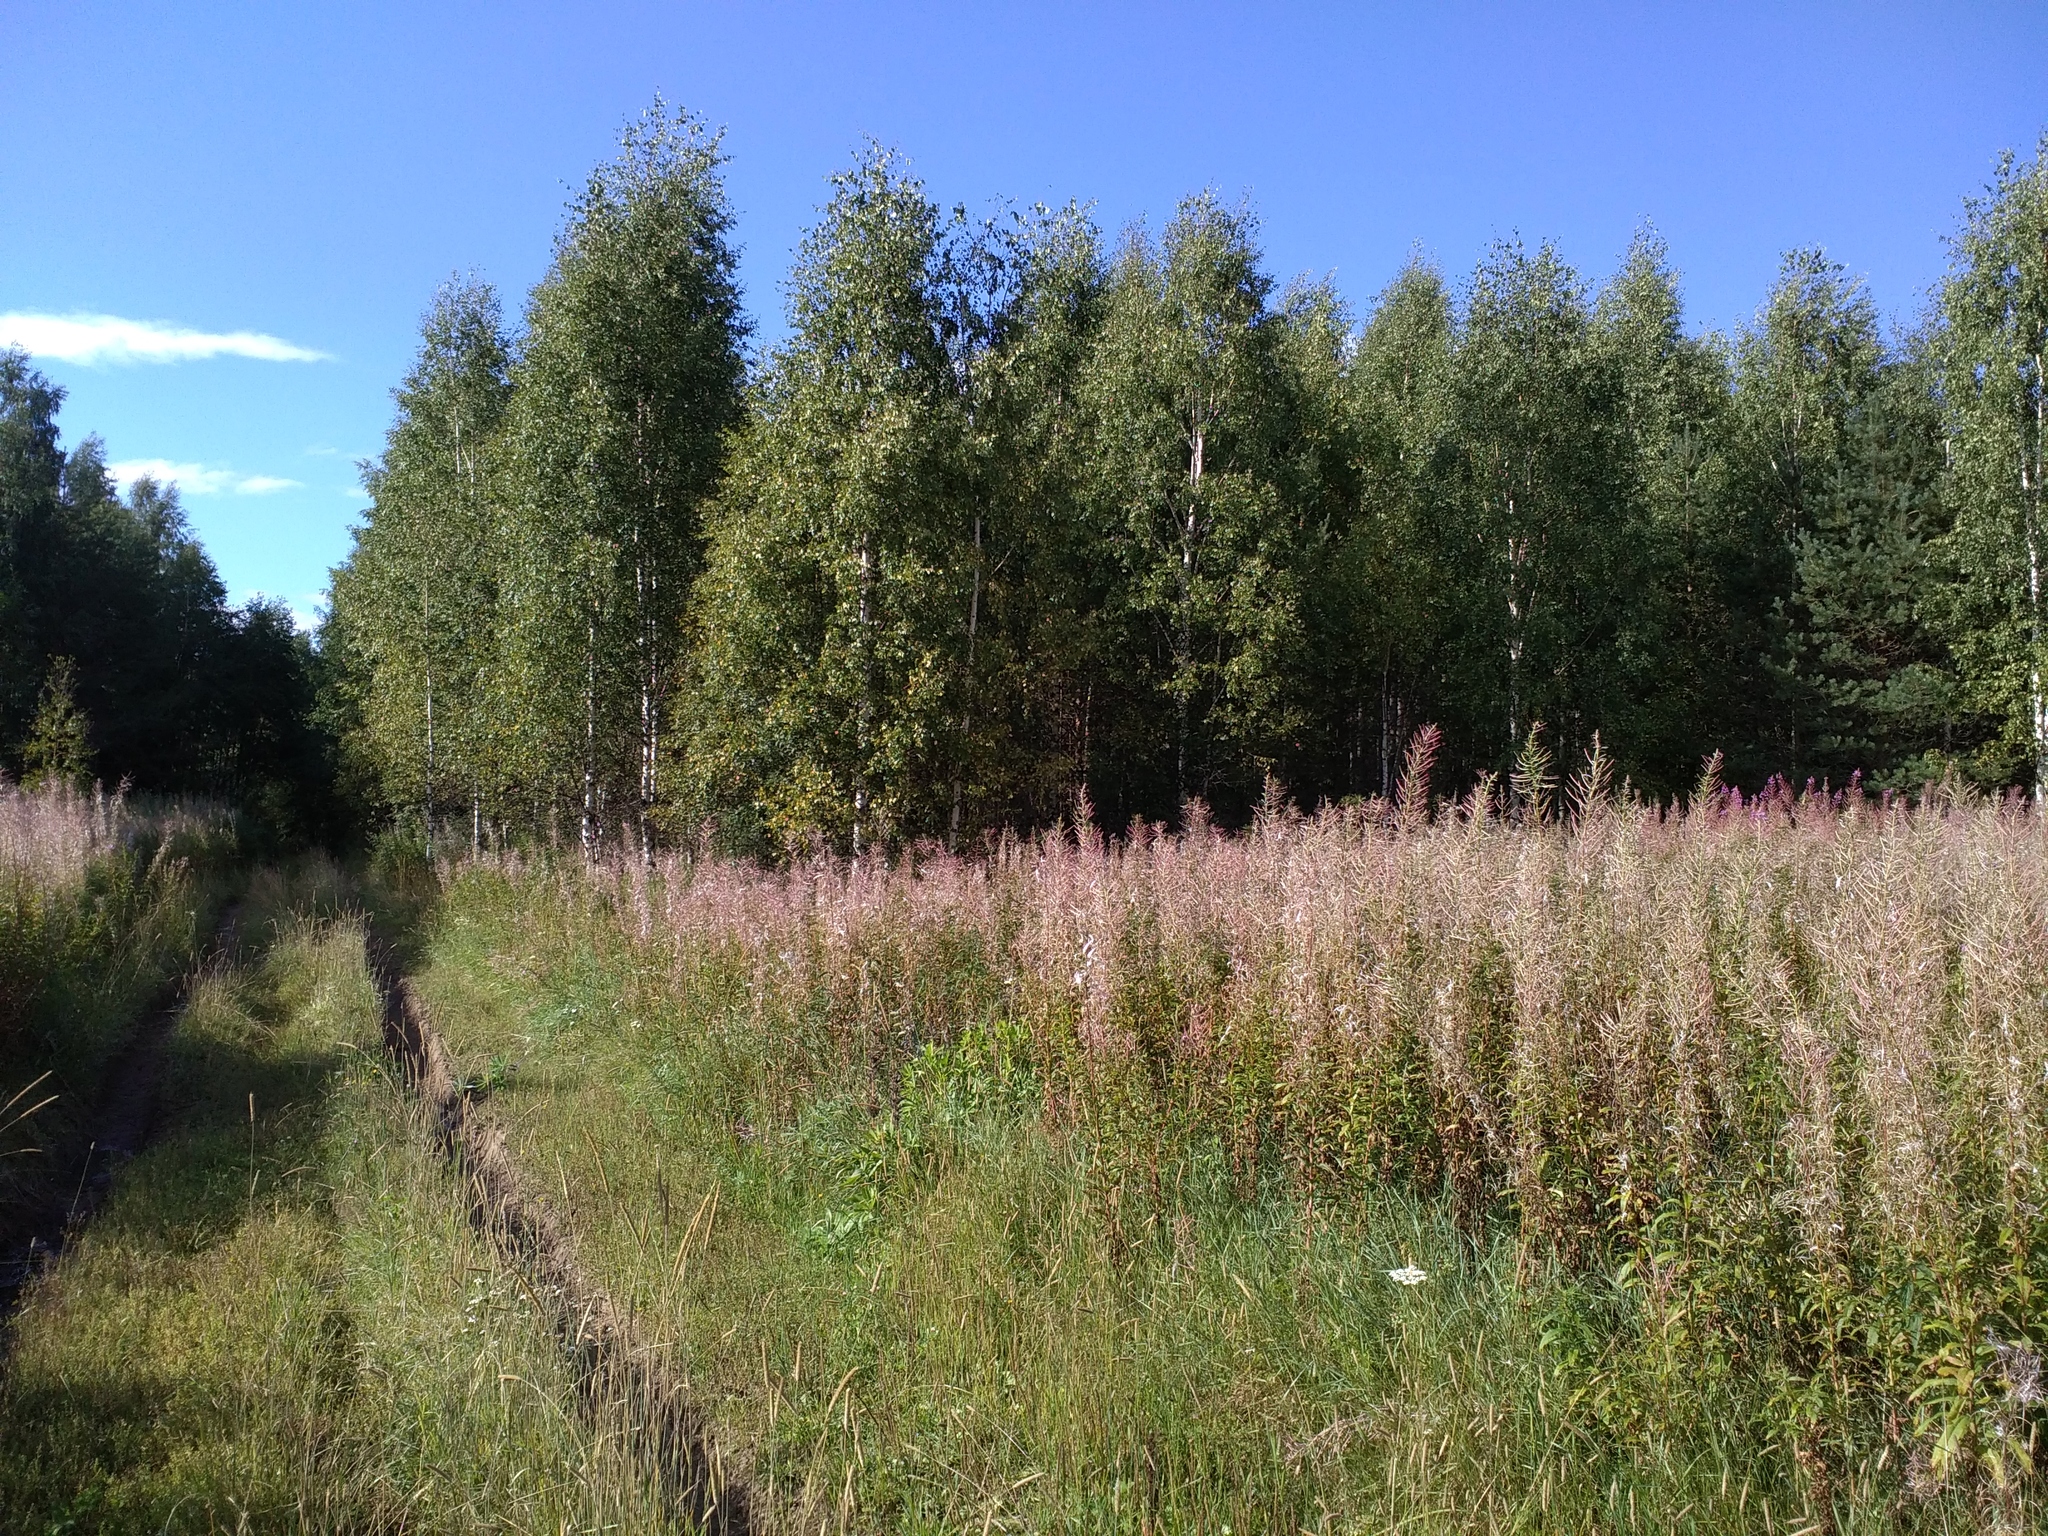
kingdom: Plantae
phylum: Tracheophyta
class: Magnoliopsida
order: Myrtales
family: Onagraceae
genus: Chamaenerion
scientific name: Chamaenerion angustifolium
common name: Fireweed
